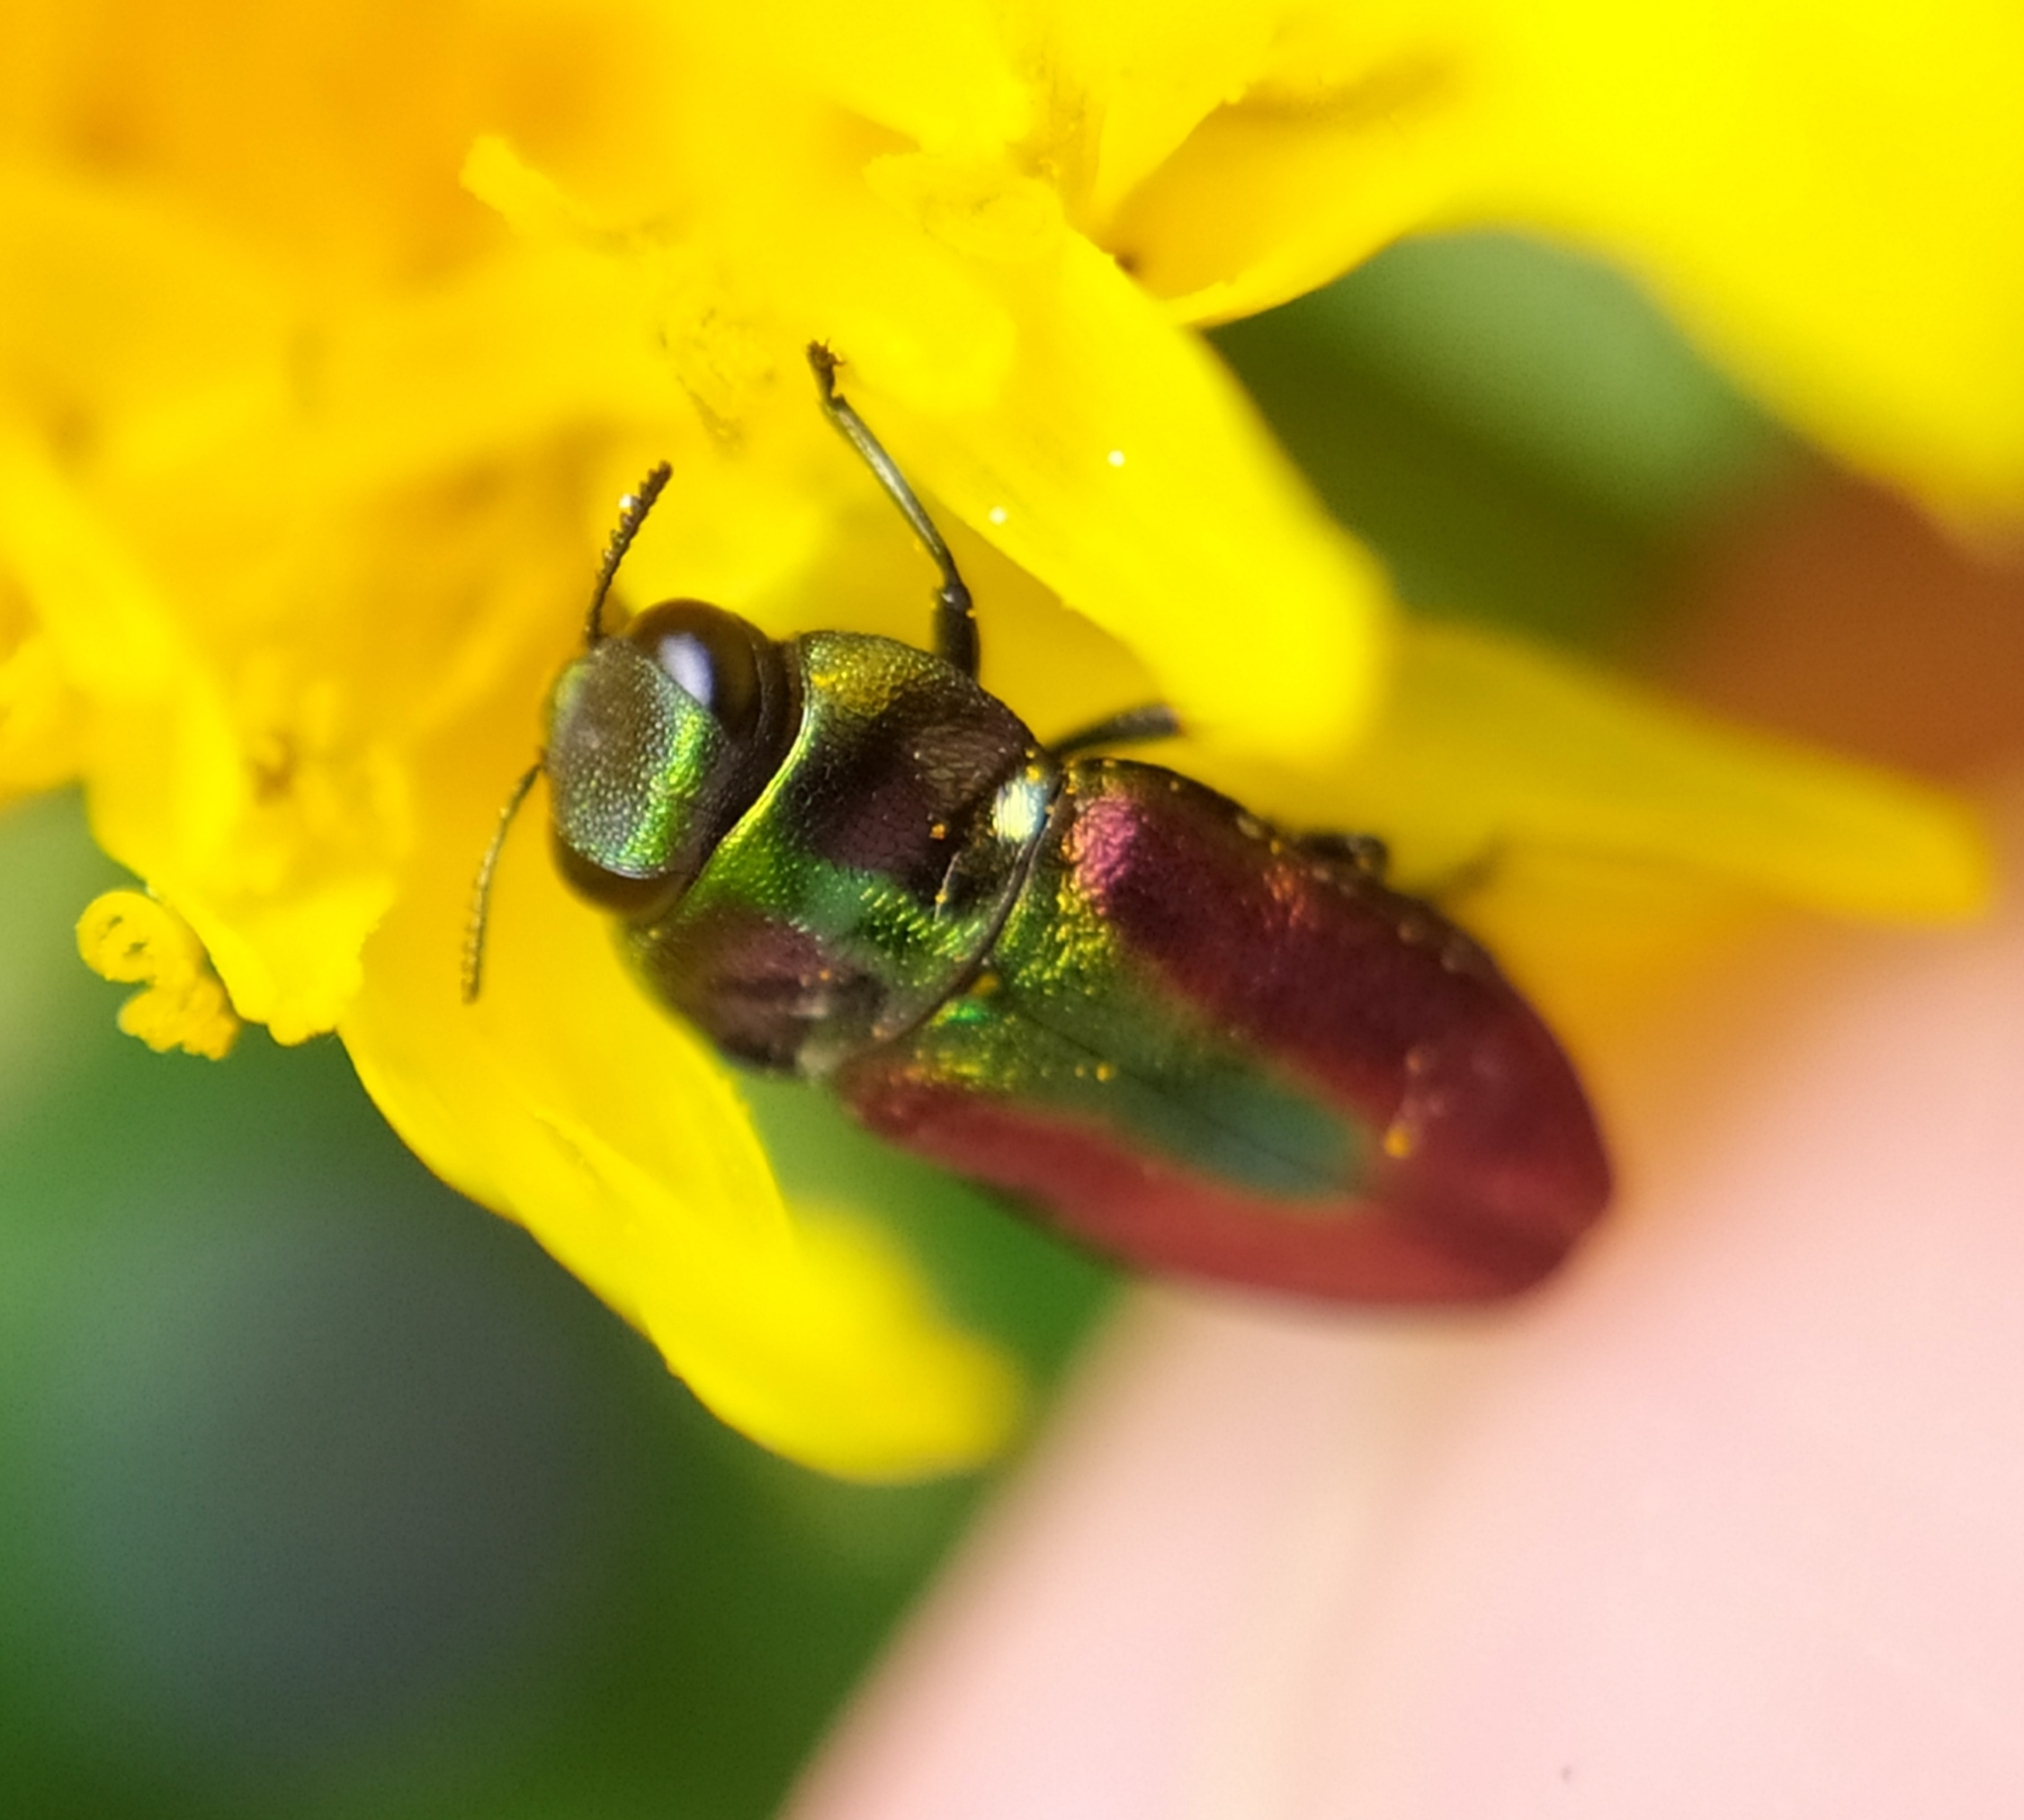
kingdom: Animalia
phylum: Arthropoda
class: Insecta
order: Coleoptera
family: Buprestidae
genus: Anthaxia
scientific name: Anthaxia fulgurans
